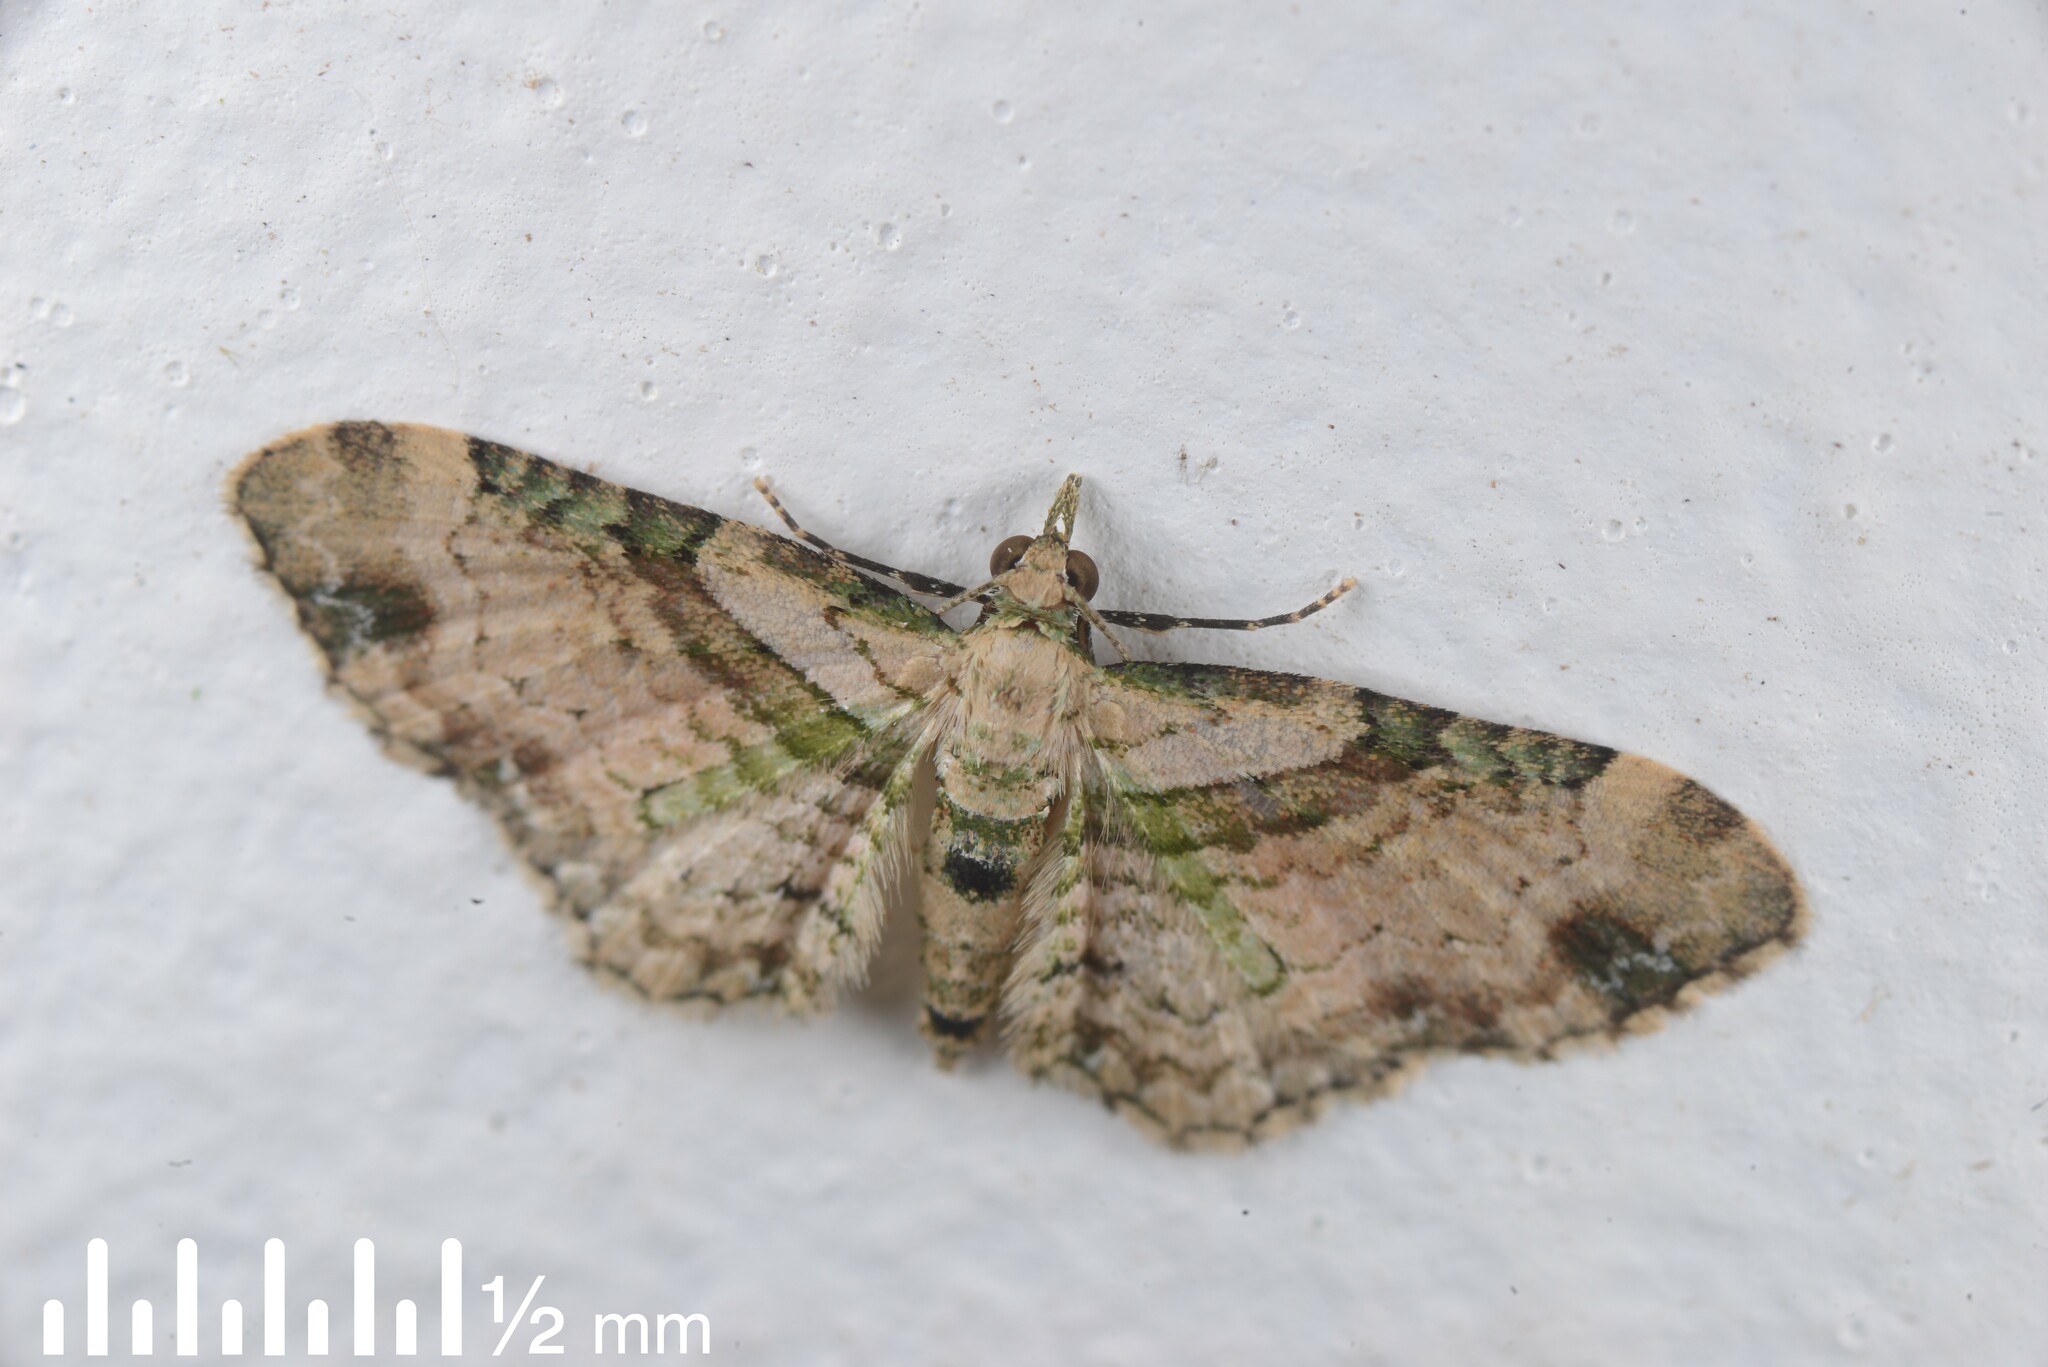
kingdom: Animalia
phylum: Arthropoda
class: Insecta
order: Lepidoptera
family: Geometridae
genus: Chloroclystis
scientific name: Chloroclystis
